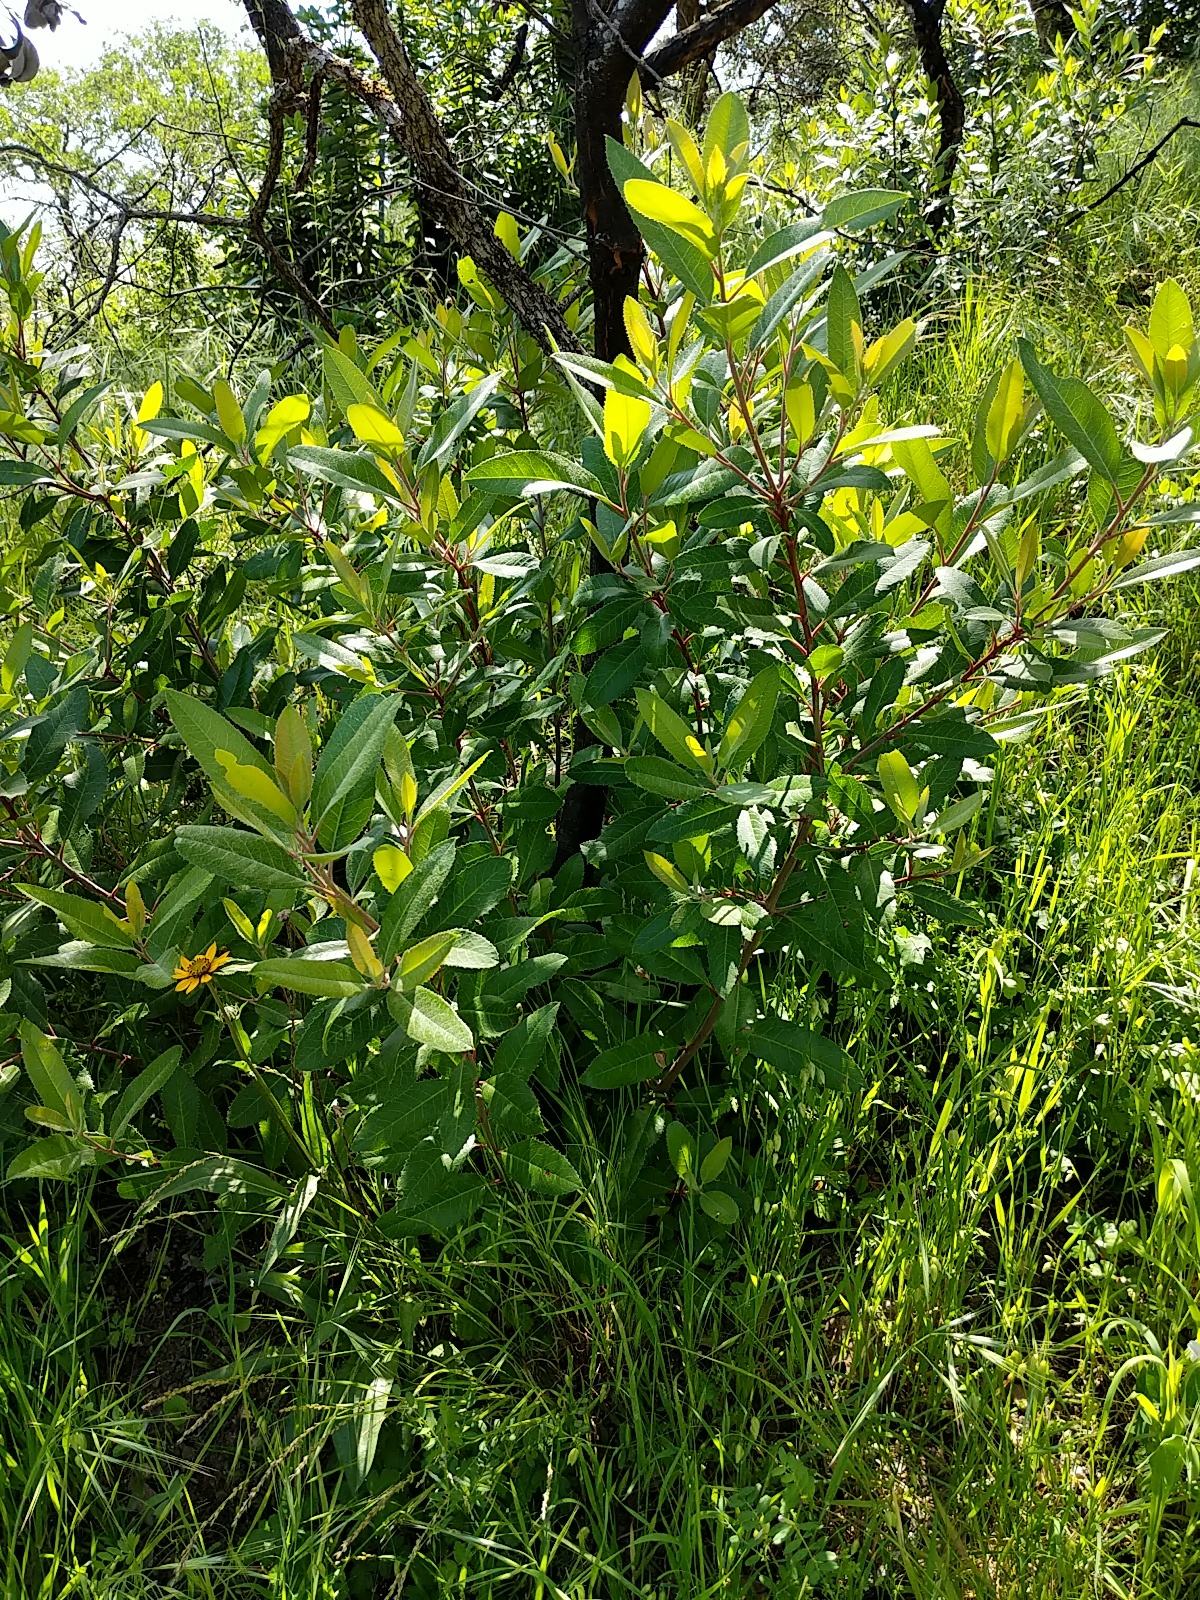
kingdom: Plantae
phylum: Tracheophyta
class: Magnoliopsida
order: Rosales
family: Rosaceae
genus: Heteromeles
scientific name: Heteromeles arbutifolia
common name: California-holly
